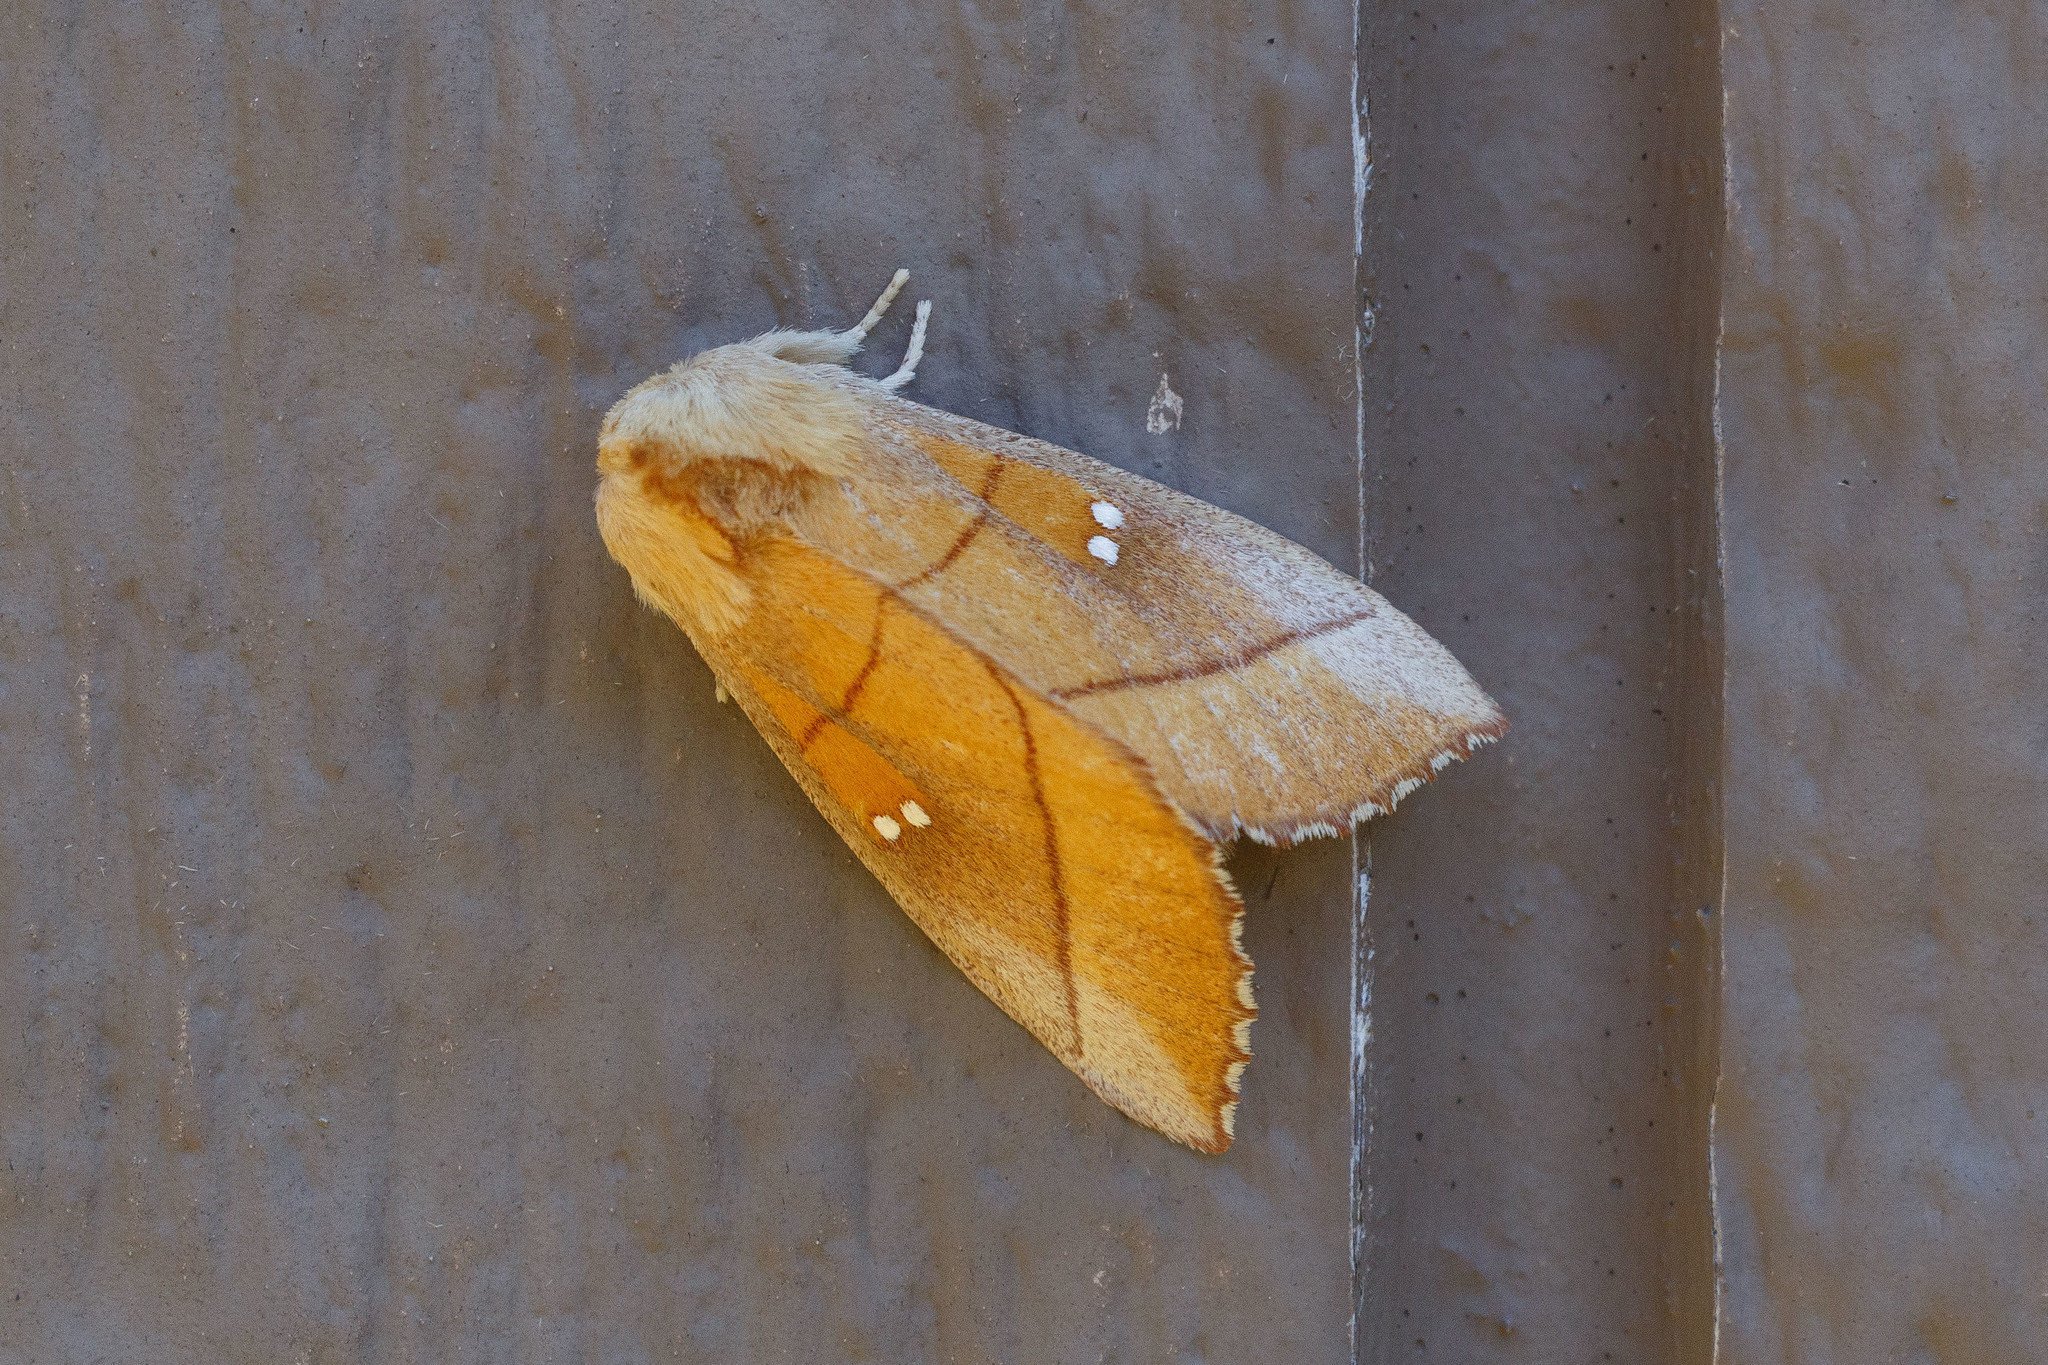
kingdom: Animalia
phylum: Arthropoda
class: Insecta
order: Lepidoptera
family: Notodontidae
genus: Nadata
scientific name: Nadata gibbosa
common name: White-dotted prominent
